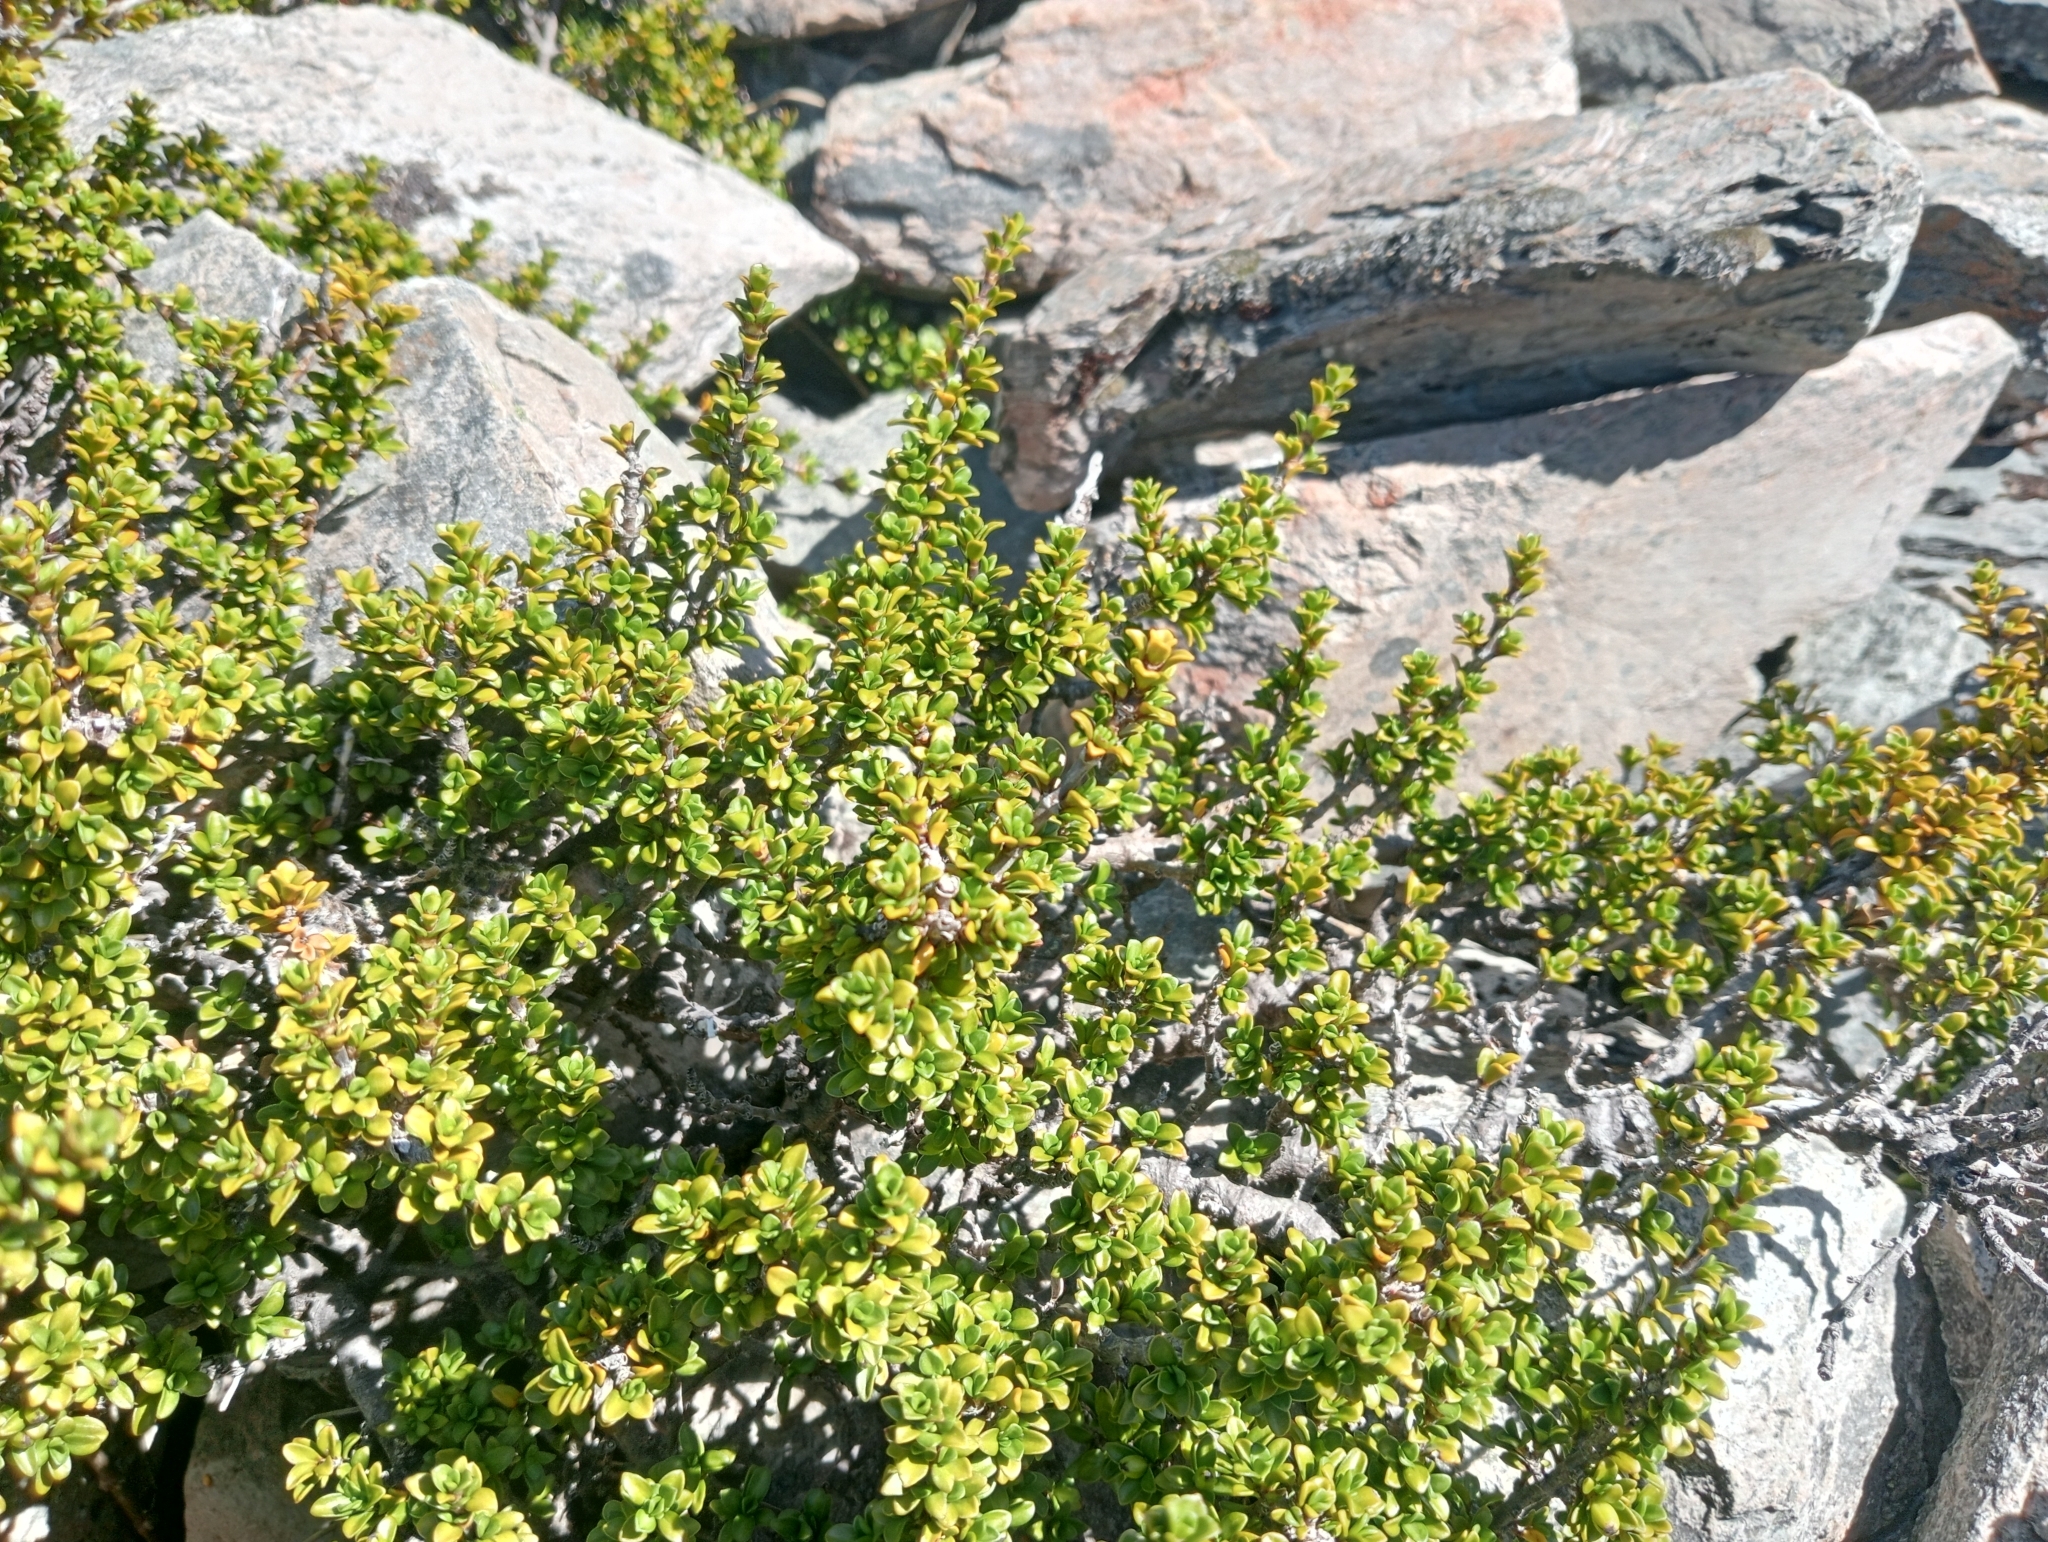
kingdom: Plantae
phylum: Tracheophyta
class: Magnoliopsida
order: Gentianales
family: Rubiaceae
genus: Coprosma
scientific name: Coprosma fowerakeri
